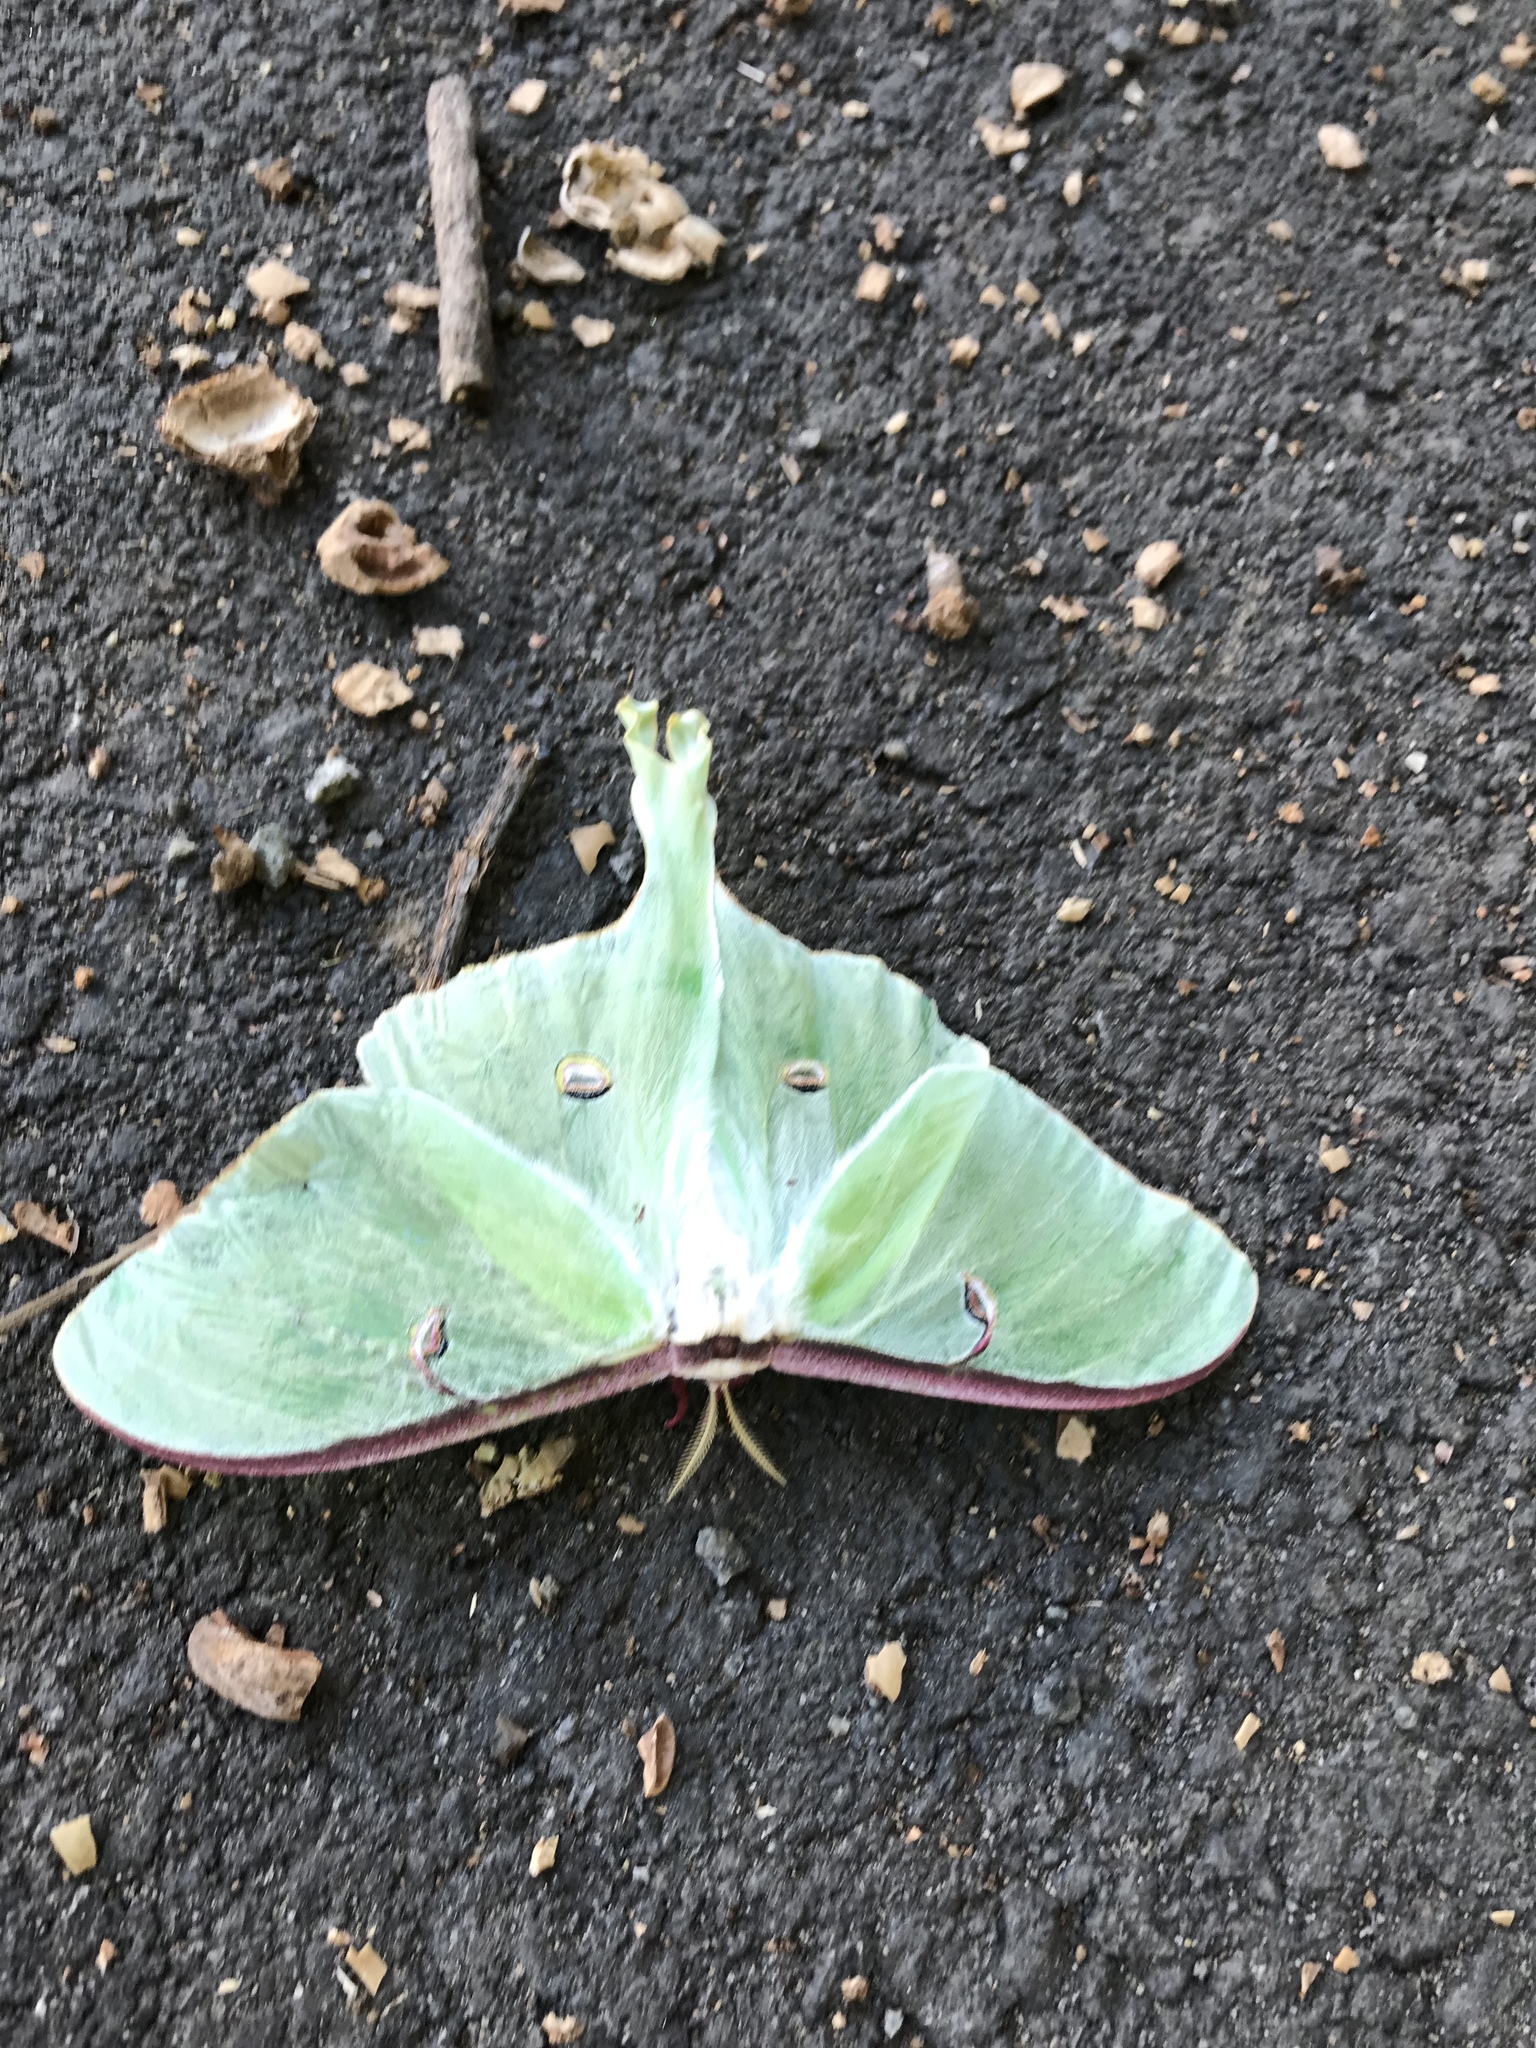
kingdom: Animalia
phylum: Arthropoda
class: Insecta
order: Lepidoptera
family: Saturniidae
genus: Actias
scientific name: Actias luna
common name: Luna moth
